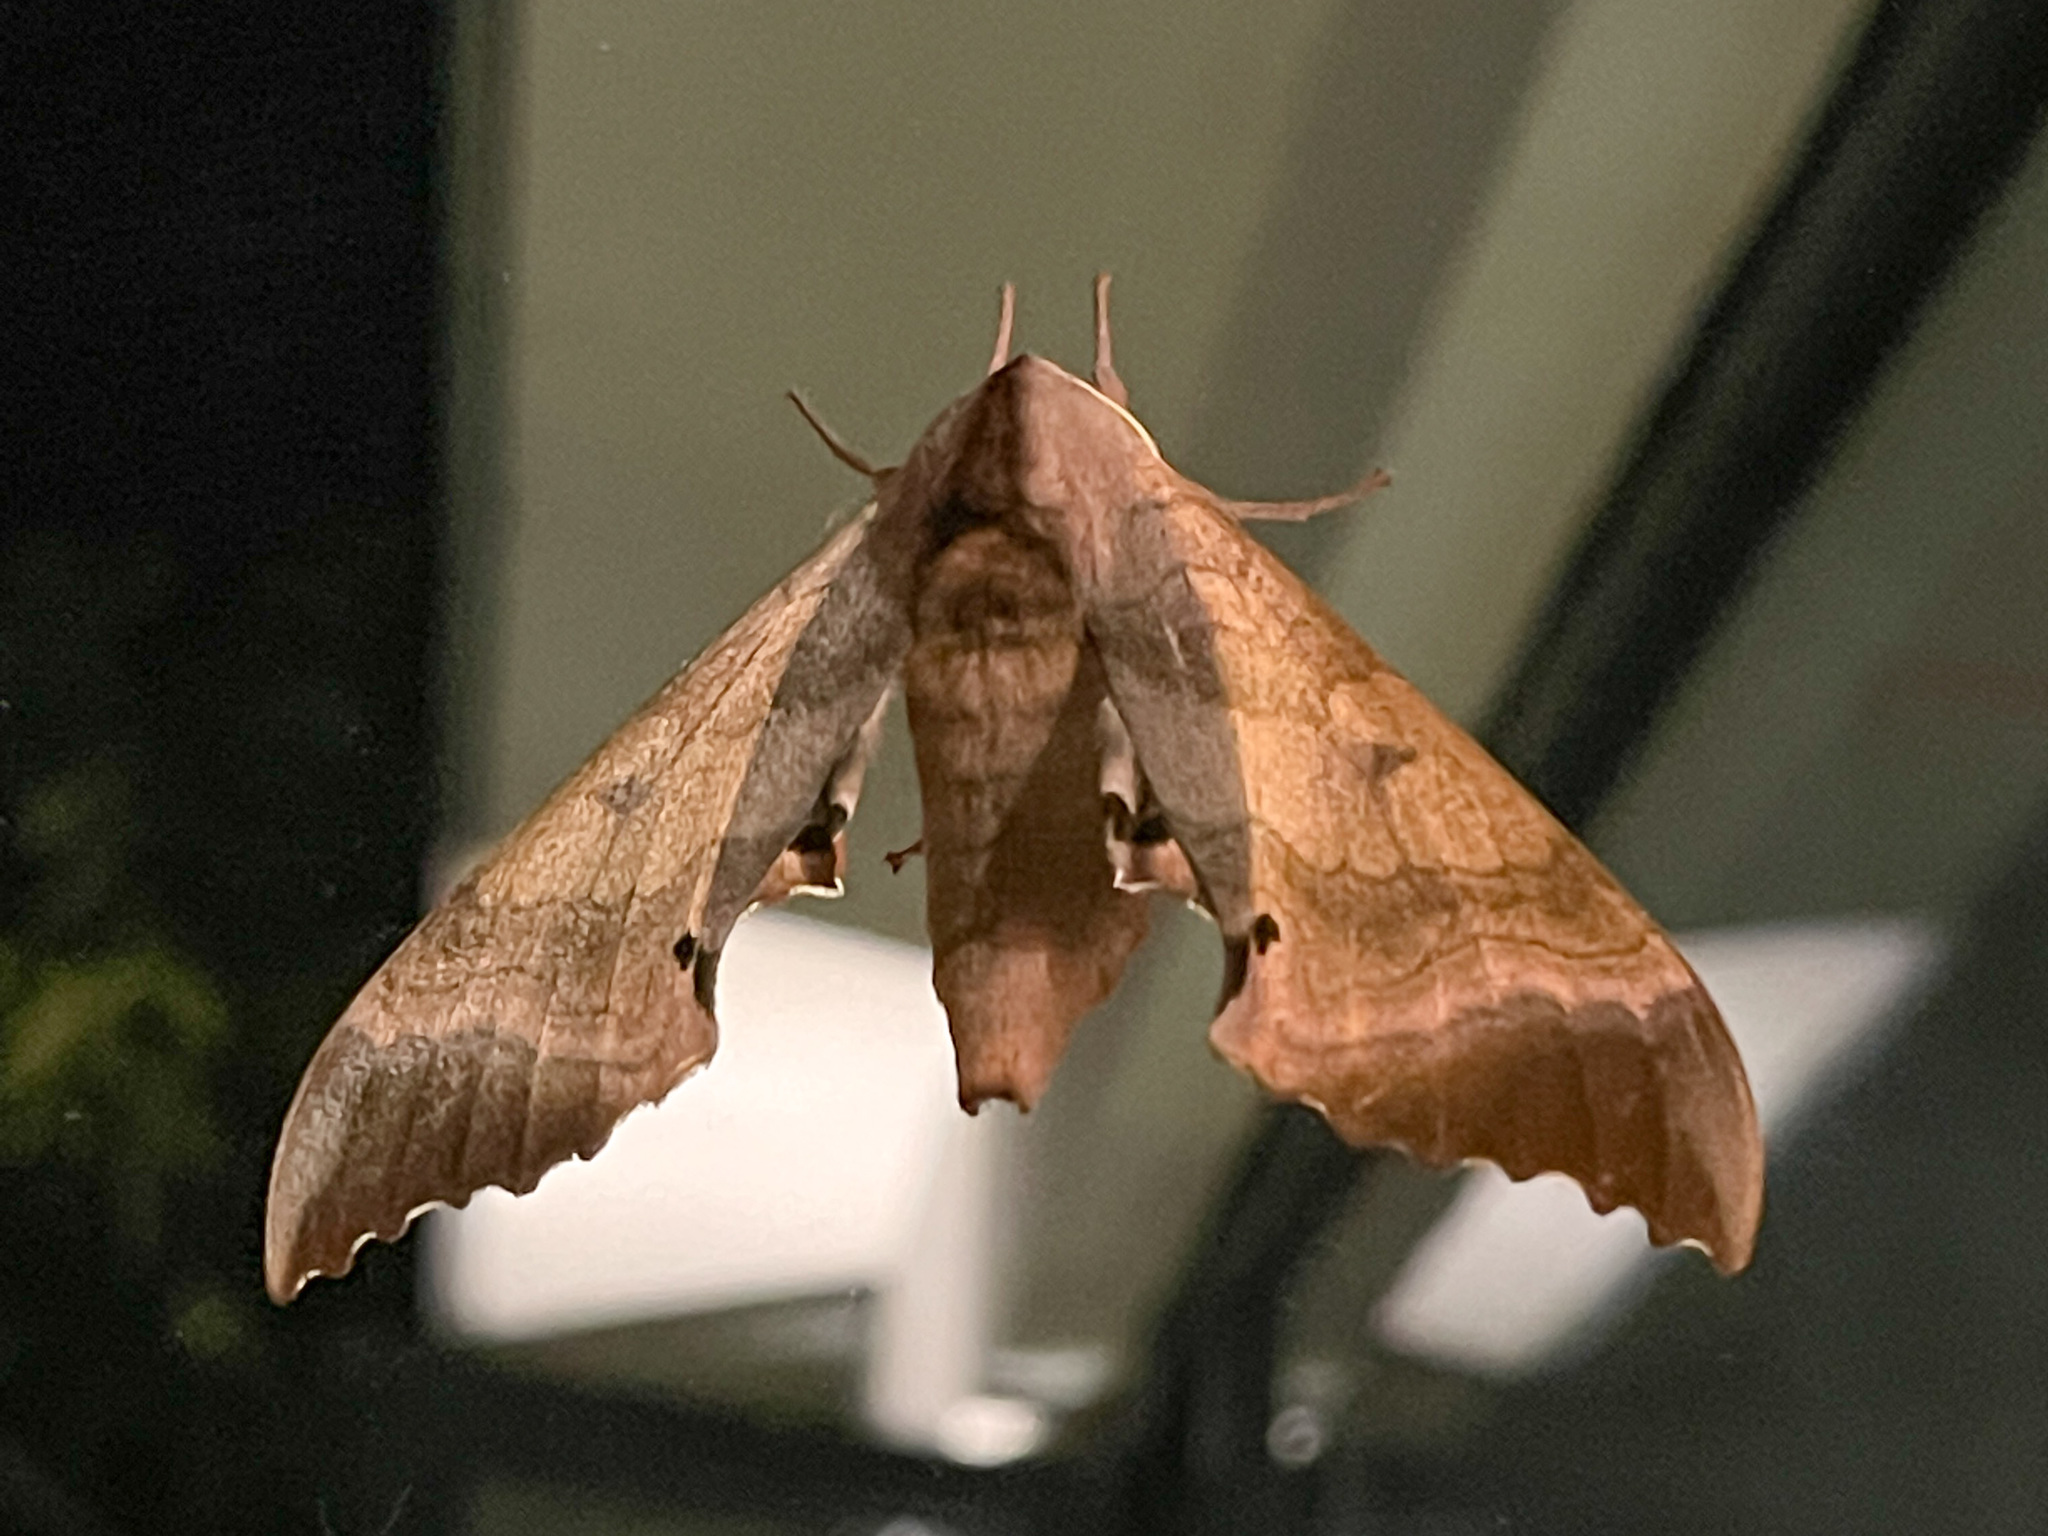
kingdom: Animalia
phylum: Arthropoda
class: Insecta
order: Lepidoptera
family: Sphingidae
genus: Marumba
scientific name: Marumba gaschkewitschii
